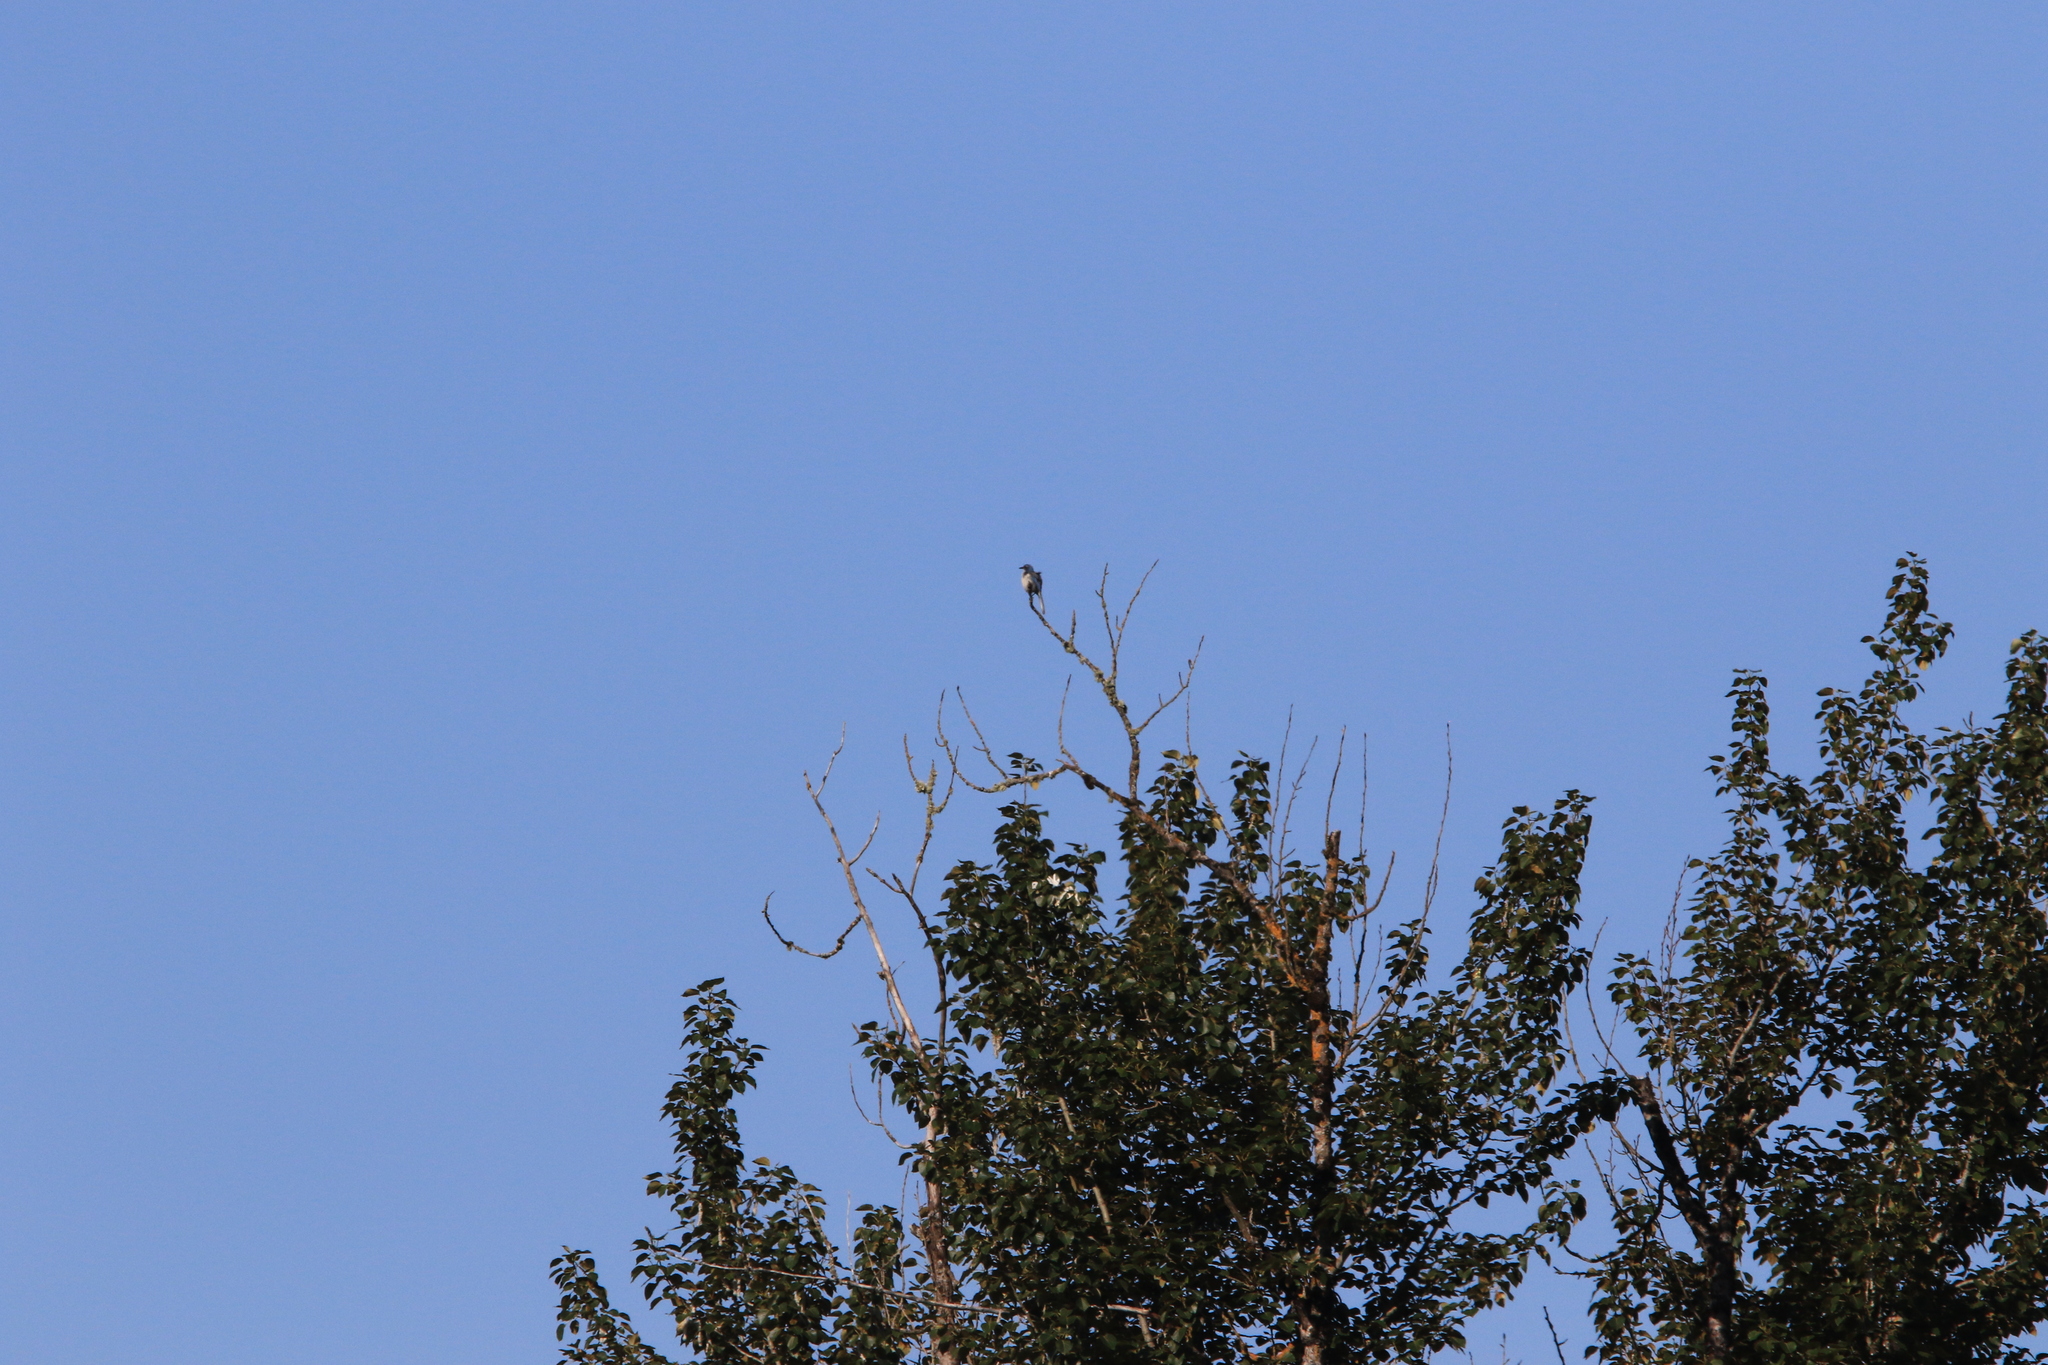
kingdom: Animalia
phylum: Chordata
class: Aves
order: Passeriformes
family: Corvidae
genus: Aphelocoma
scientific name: Aphelocoma californica
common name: California scrub-jay
